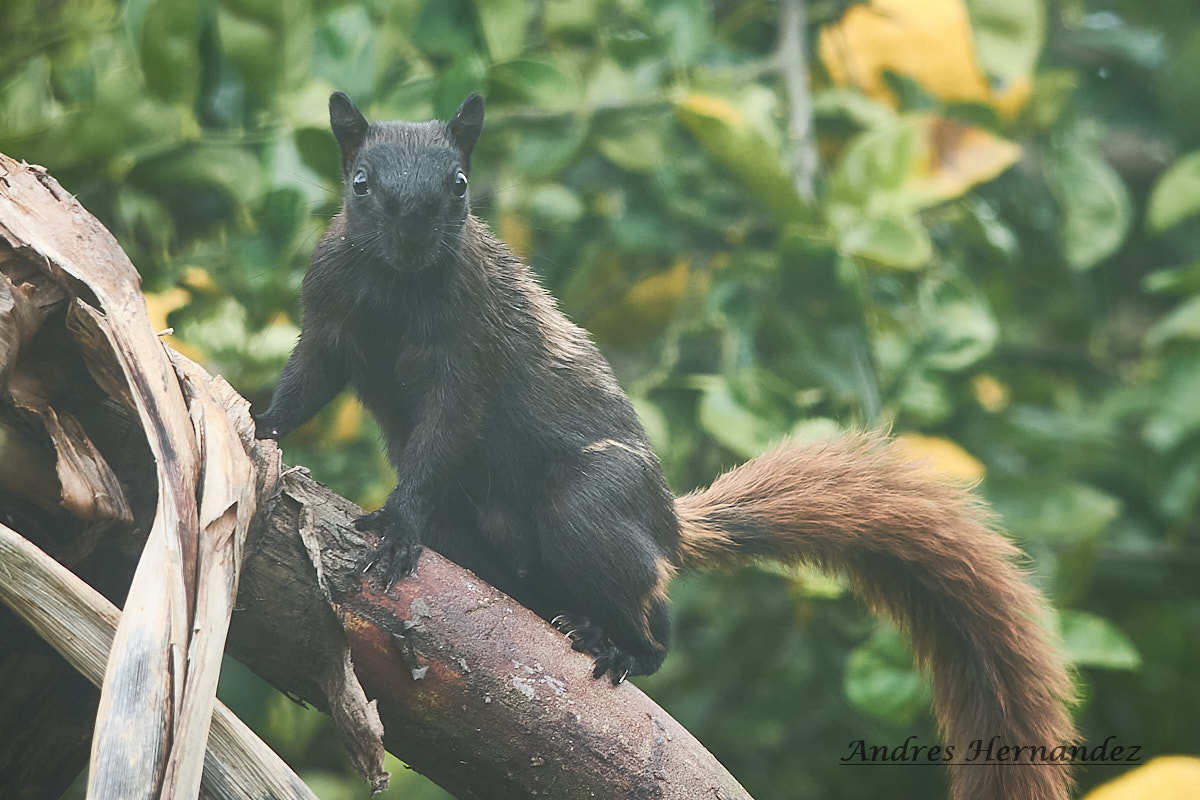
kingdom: Animalia
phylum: Chordata
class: Mammalia
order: Rodentia
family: Sciuridae
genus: Sciurus
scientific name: Sciurus variegatoides
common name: Variegated squirrel
